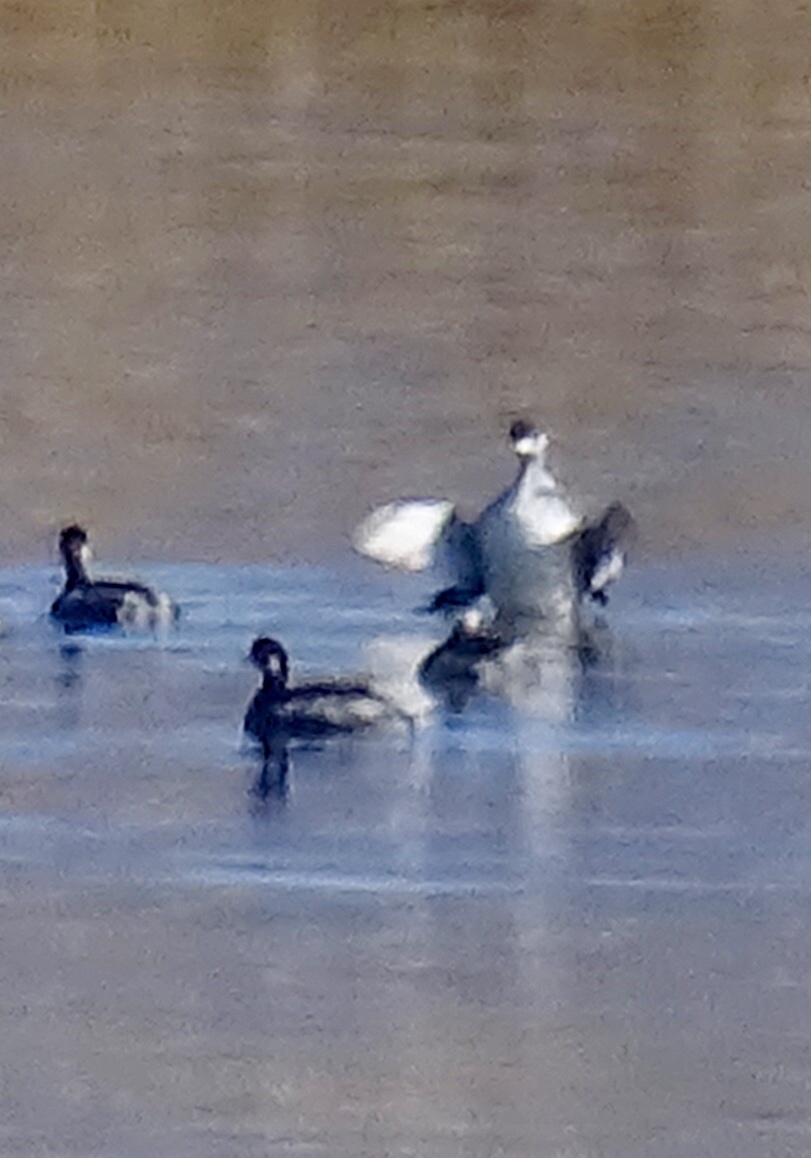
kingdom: Animalia
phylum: Chordata
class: Aves
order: Podicipediformes
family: Podicipedidae
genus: Podiceps
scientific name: Podiceps nigricollis
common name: Black-necked grebe
